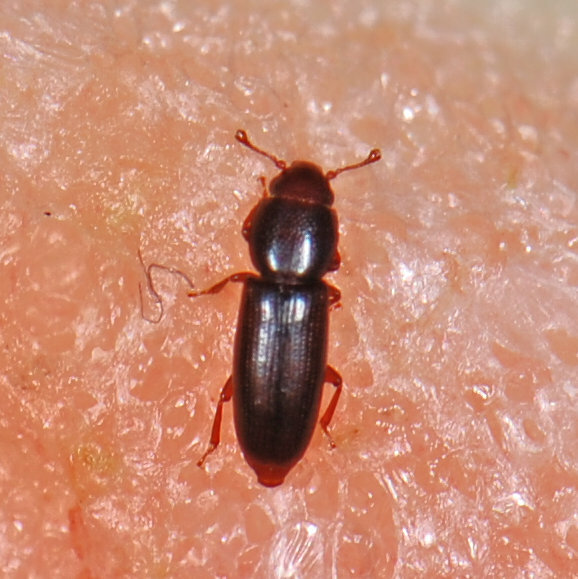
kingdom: Animalia
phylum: Arthropoda
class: Insecta
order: Coleoptera
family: Monotomidae
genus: Rhizophagus
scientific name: Rhizophagus remotus
